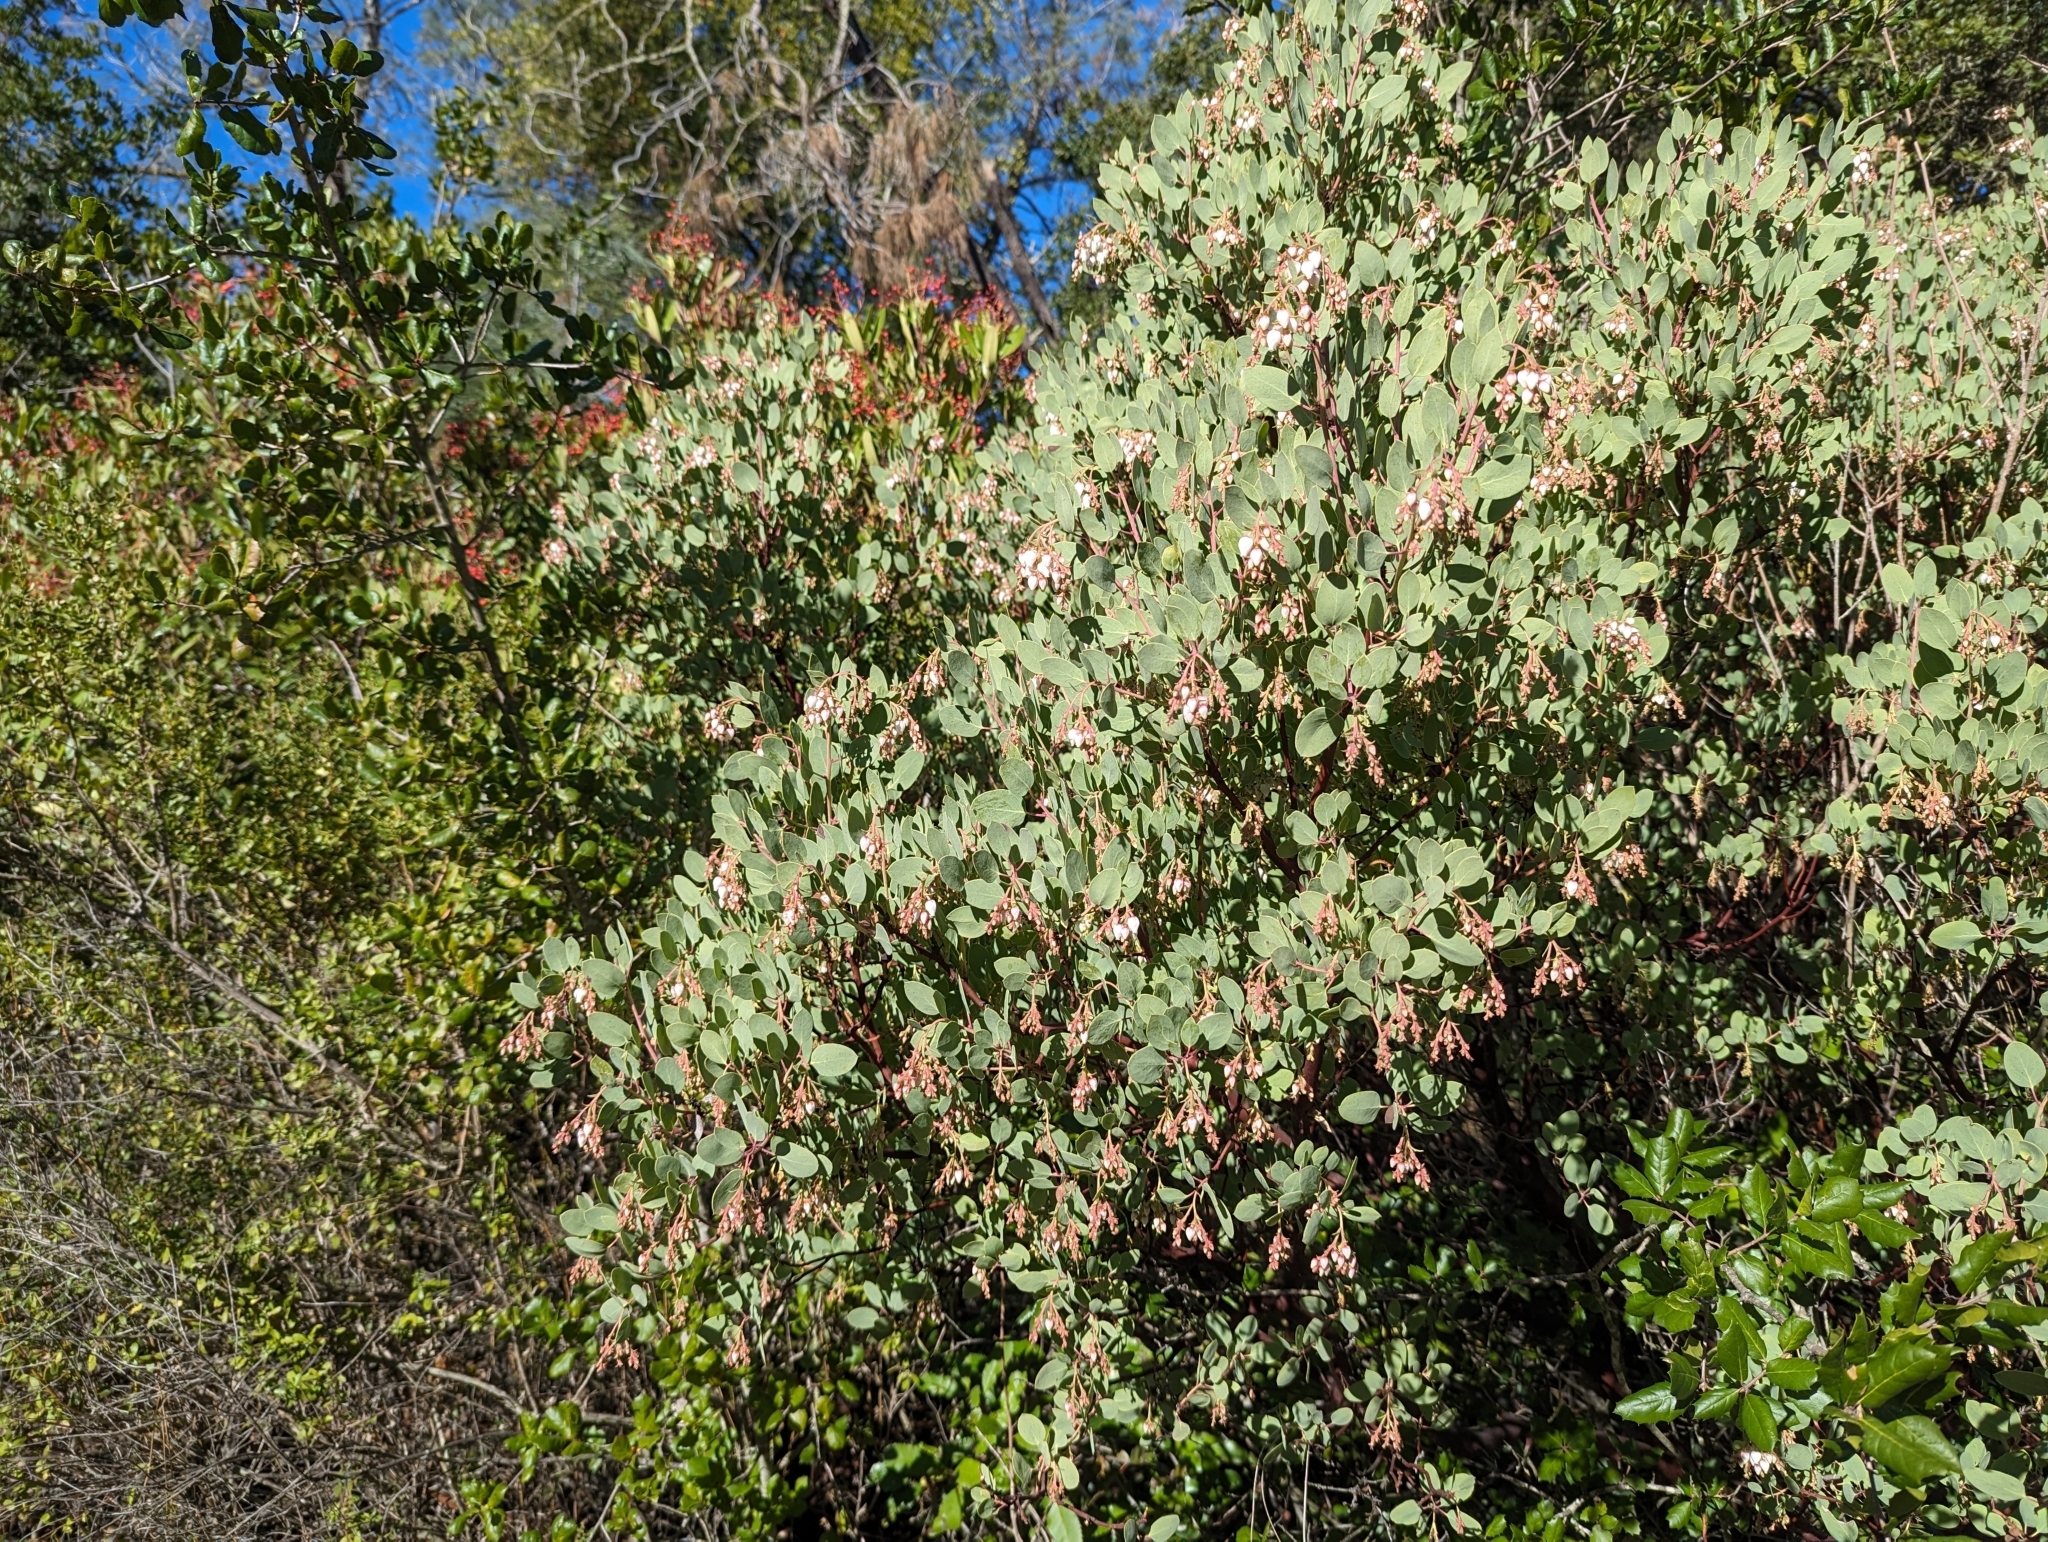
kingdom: Plantae
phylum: Tracheophyta
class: Magnoliopsida
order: Ericales
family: Ericaceae
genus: Arctostaphylos
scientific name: Arctostaphylos glauca
